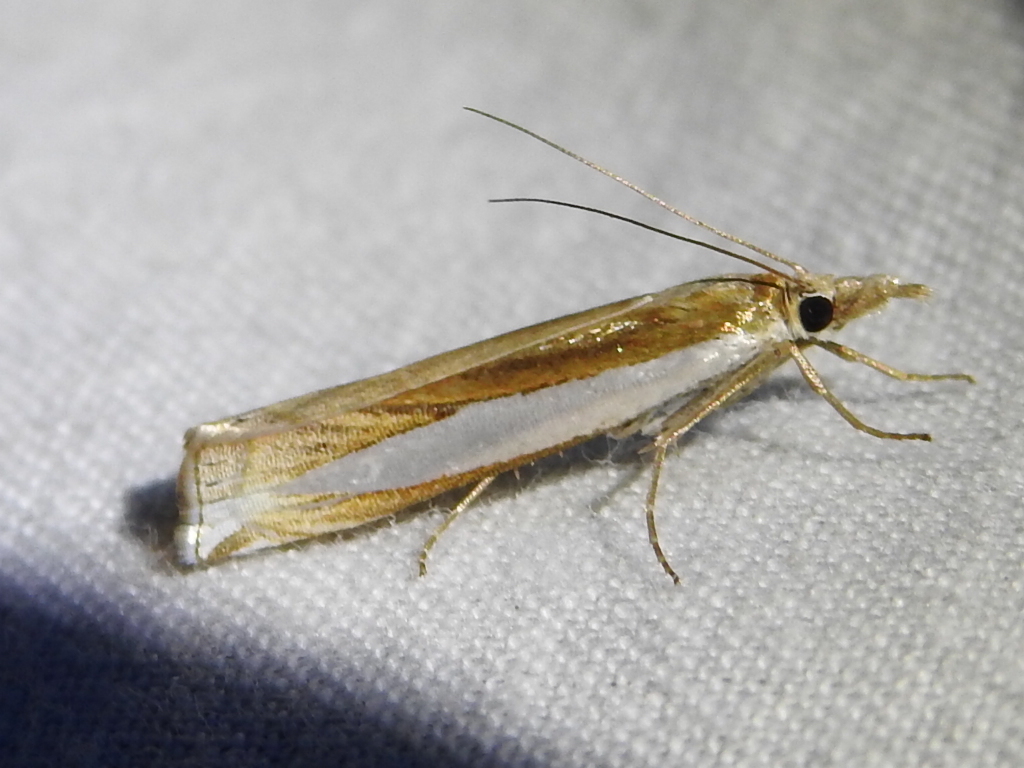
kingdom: Animalia
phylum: Arthropoda
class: Insecta
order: Lepidoptera
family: Crambidae
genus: Crambus
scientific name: Crambus leachellus
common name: Leach's grass-veneer
